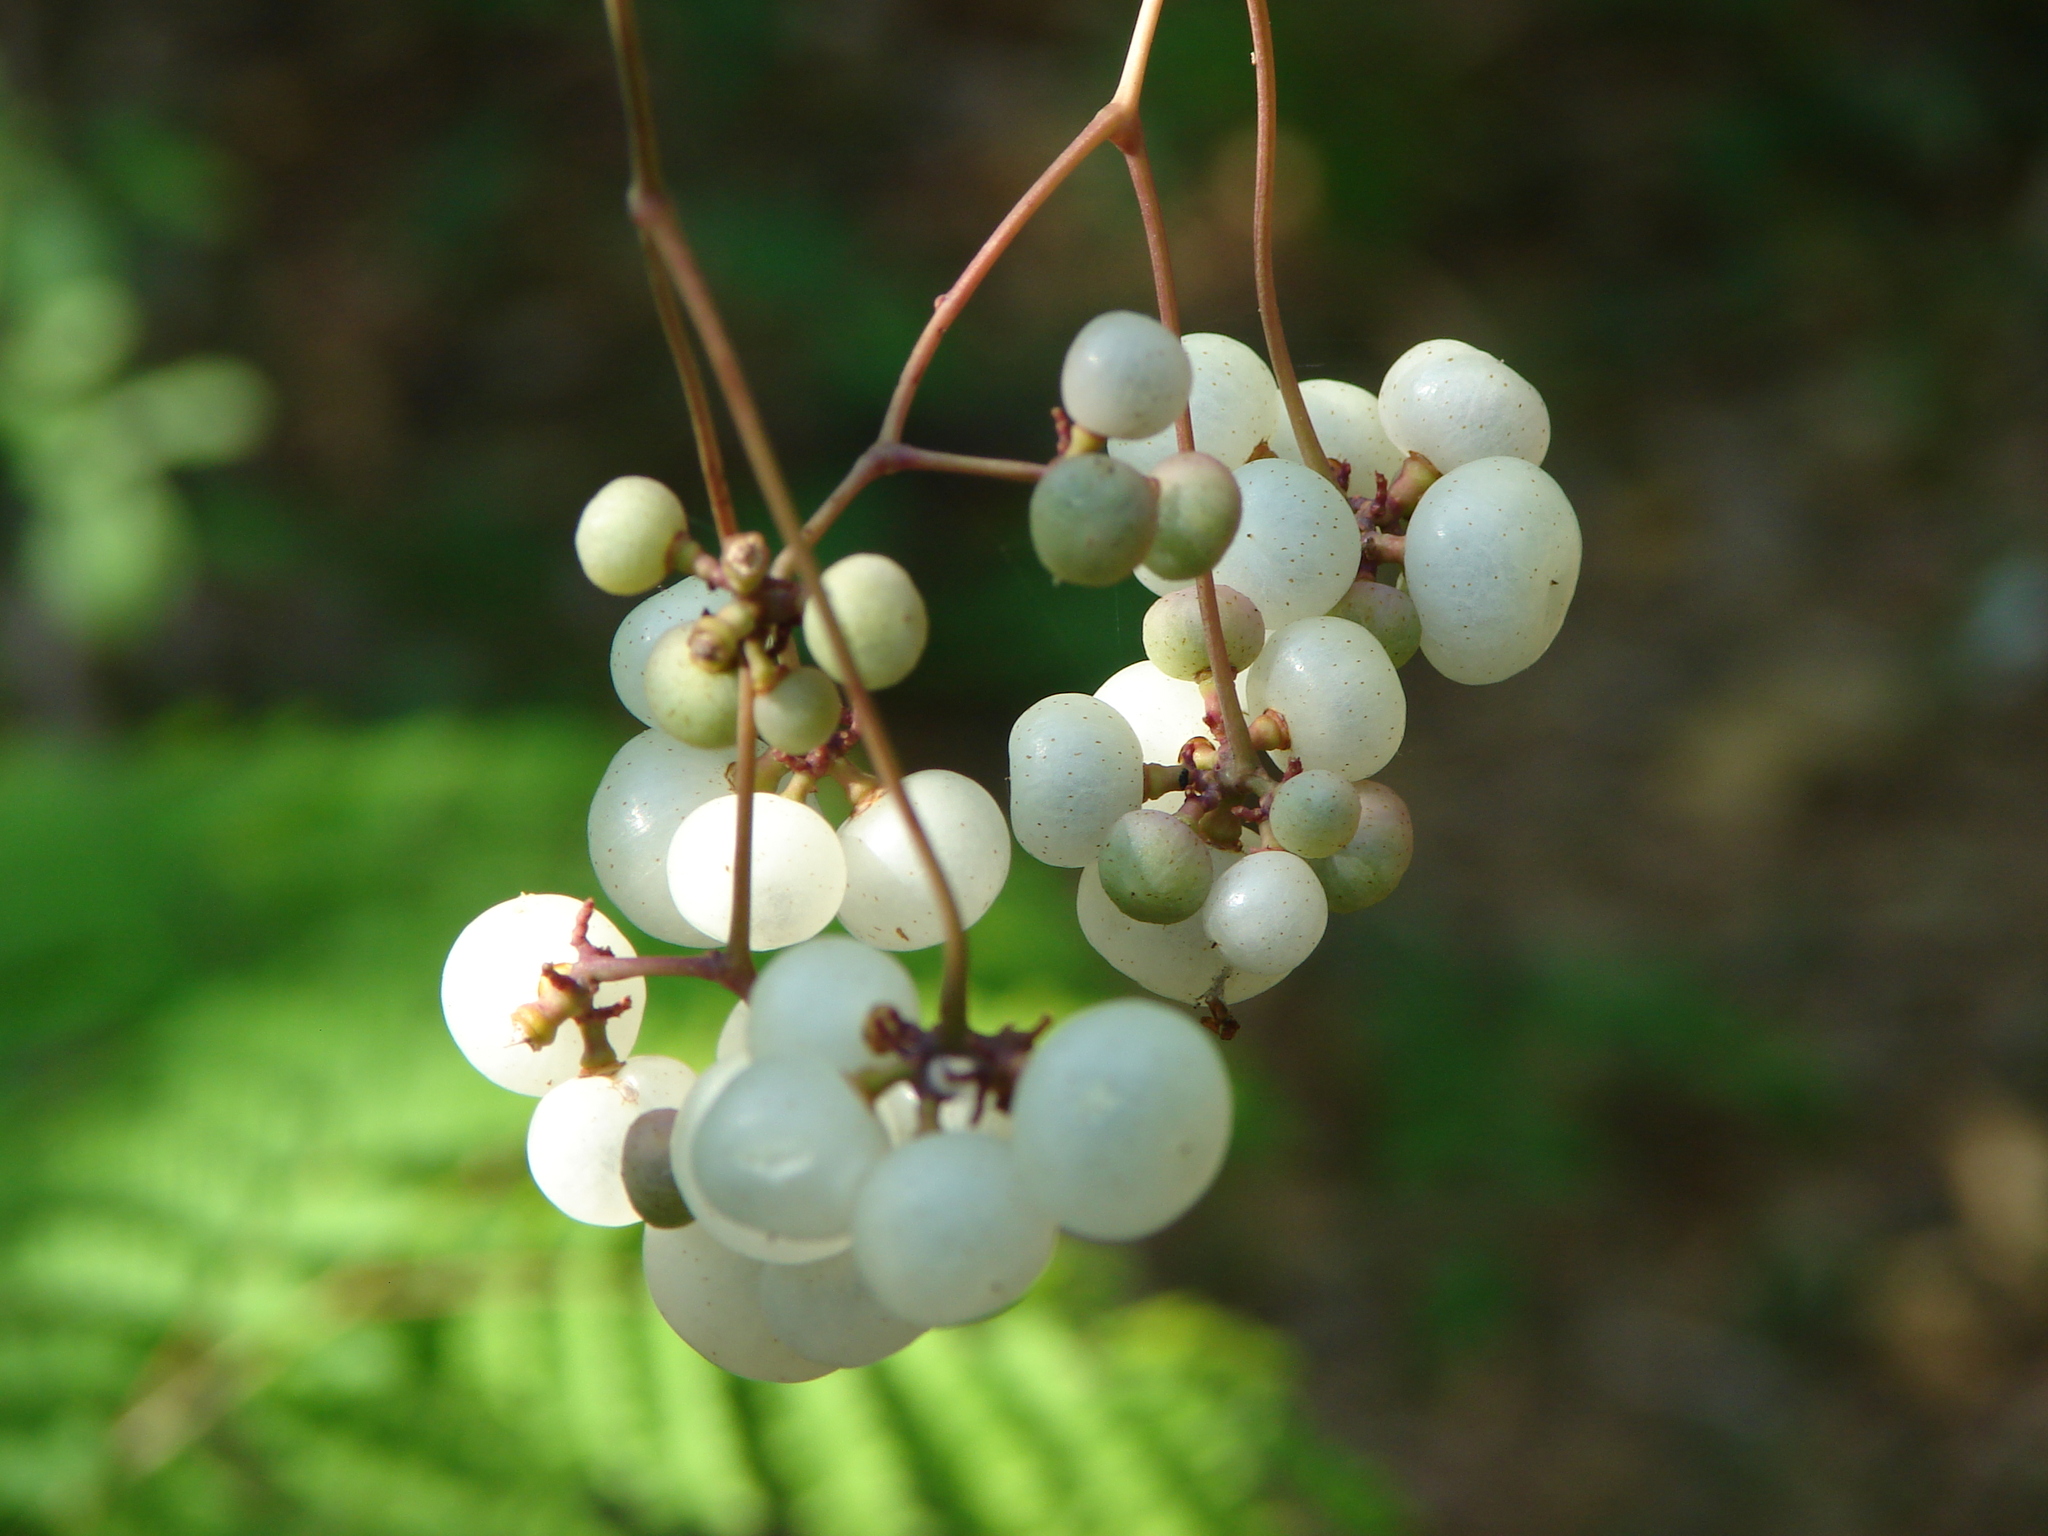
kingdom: Plantae
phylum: Tracheophyta
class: Magnoliopsida
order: Vitales
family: Vitaceae
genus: Ampelopsis
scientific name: Ampelopsis denudata
